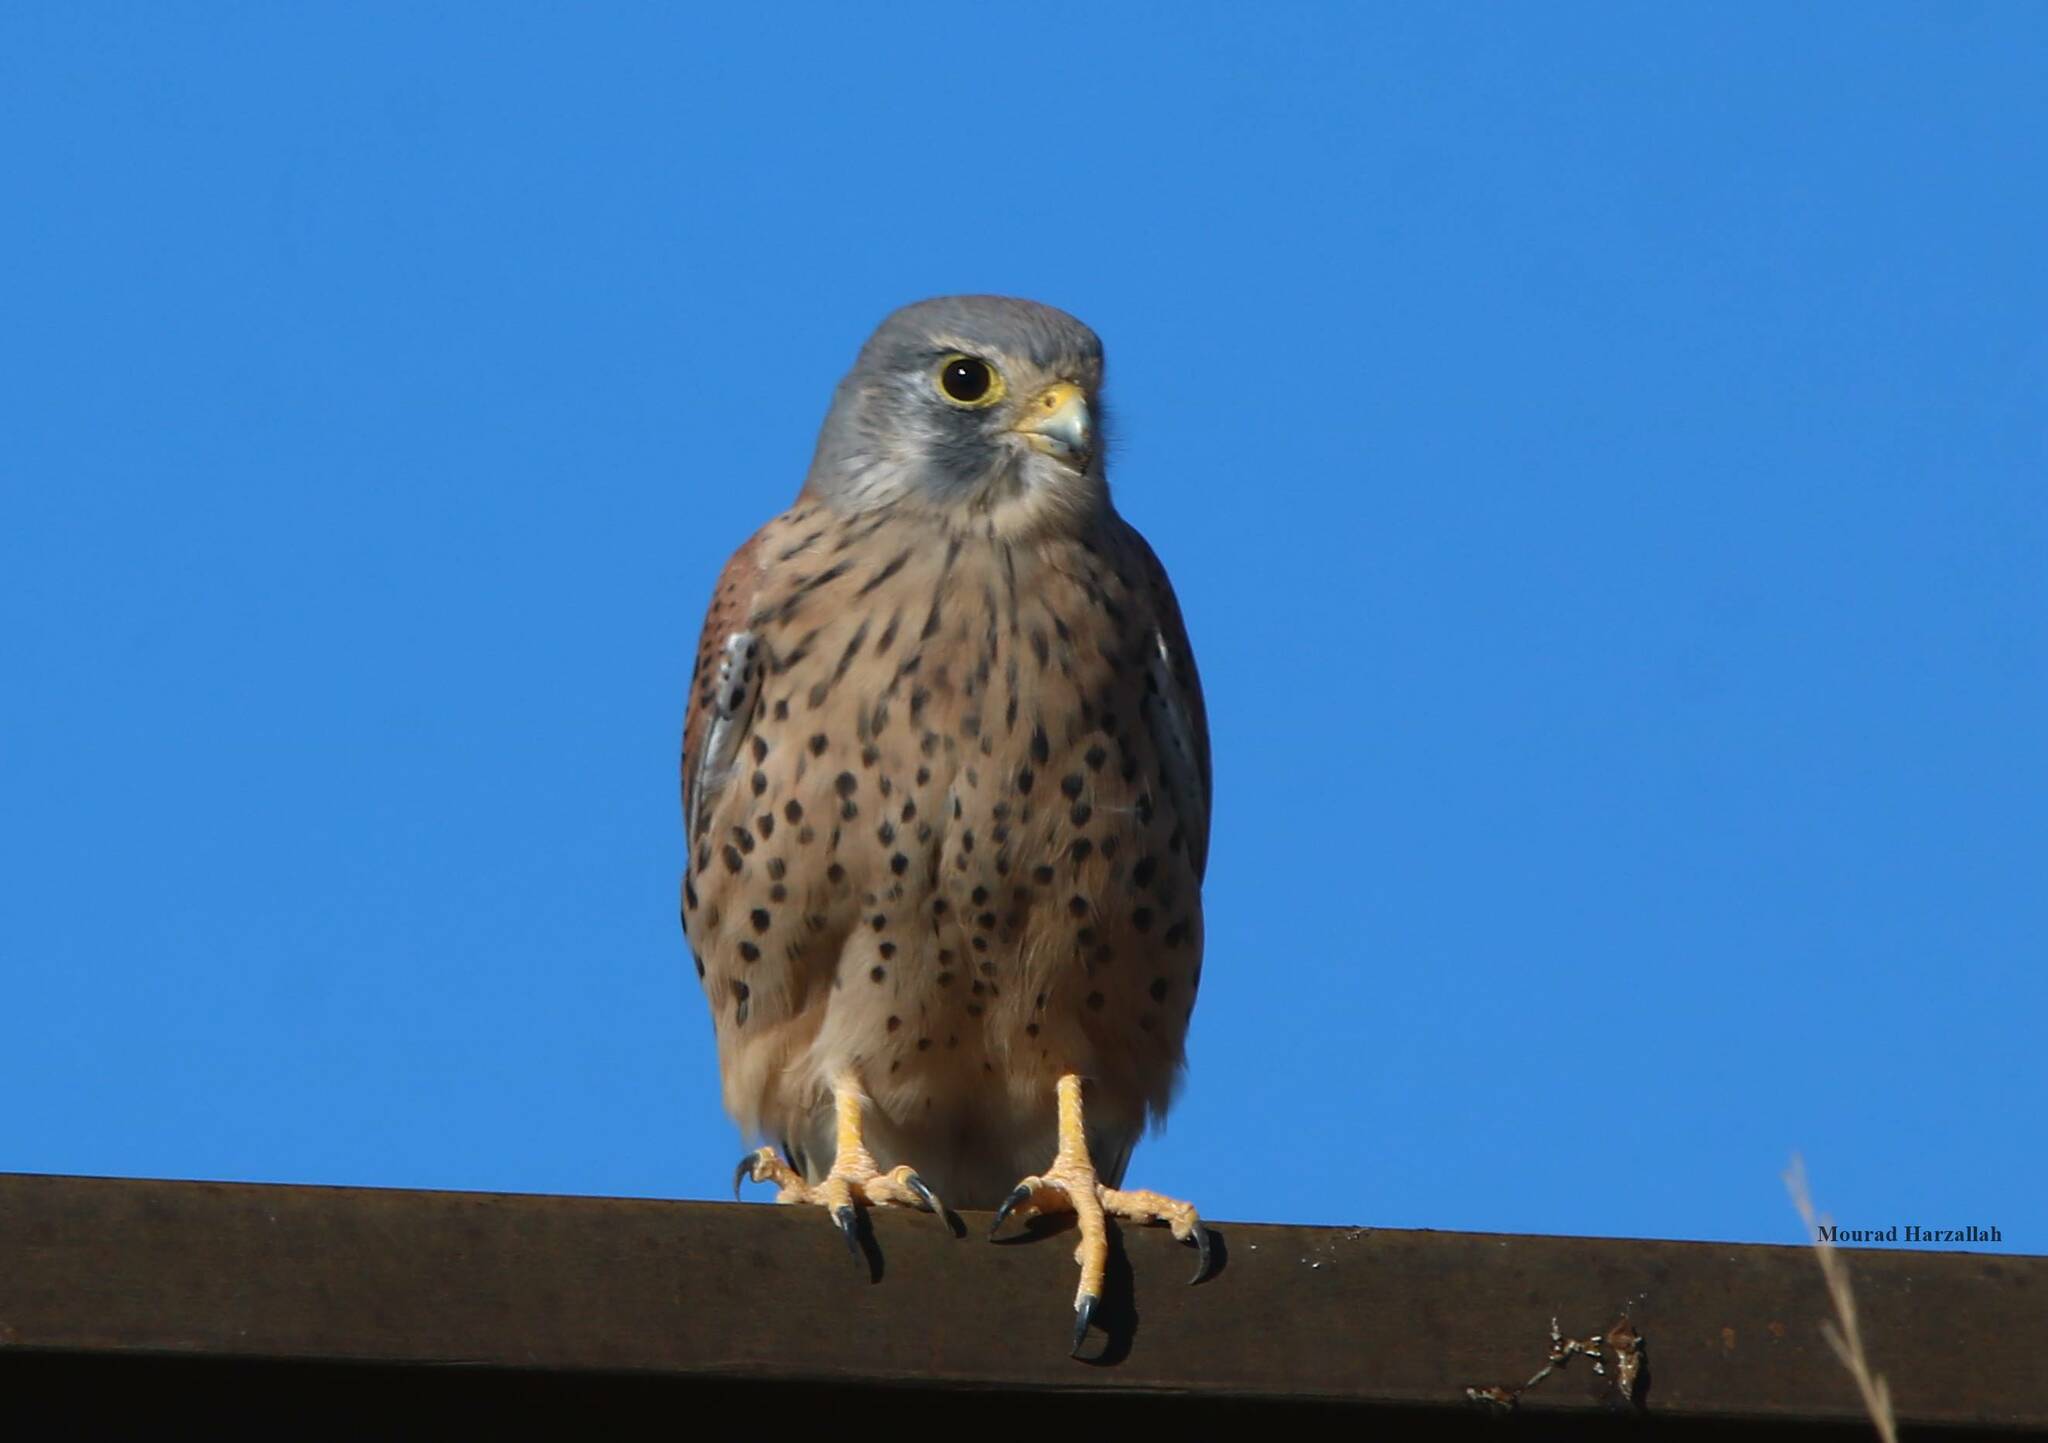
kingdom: Animalia
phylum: Chordata
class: Aves
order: Falconiformes
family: Falconidae
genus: Falco
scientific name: Falco tinnunculus
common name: Common kestrel
